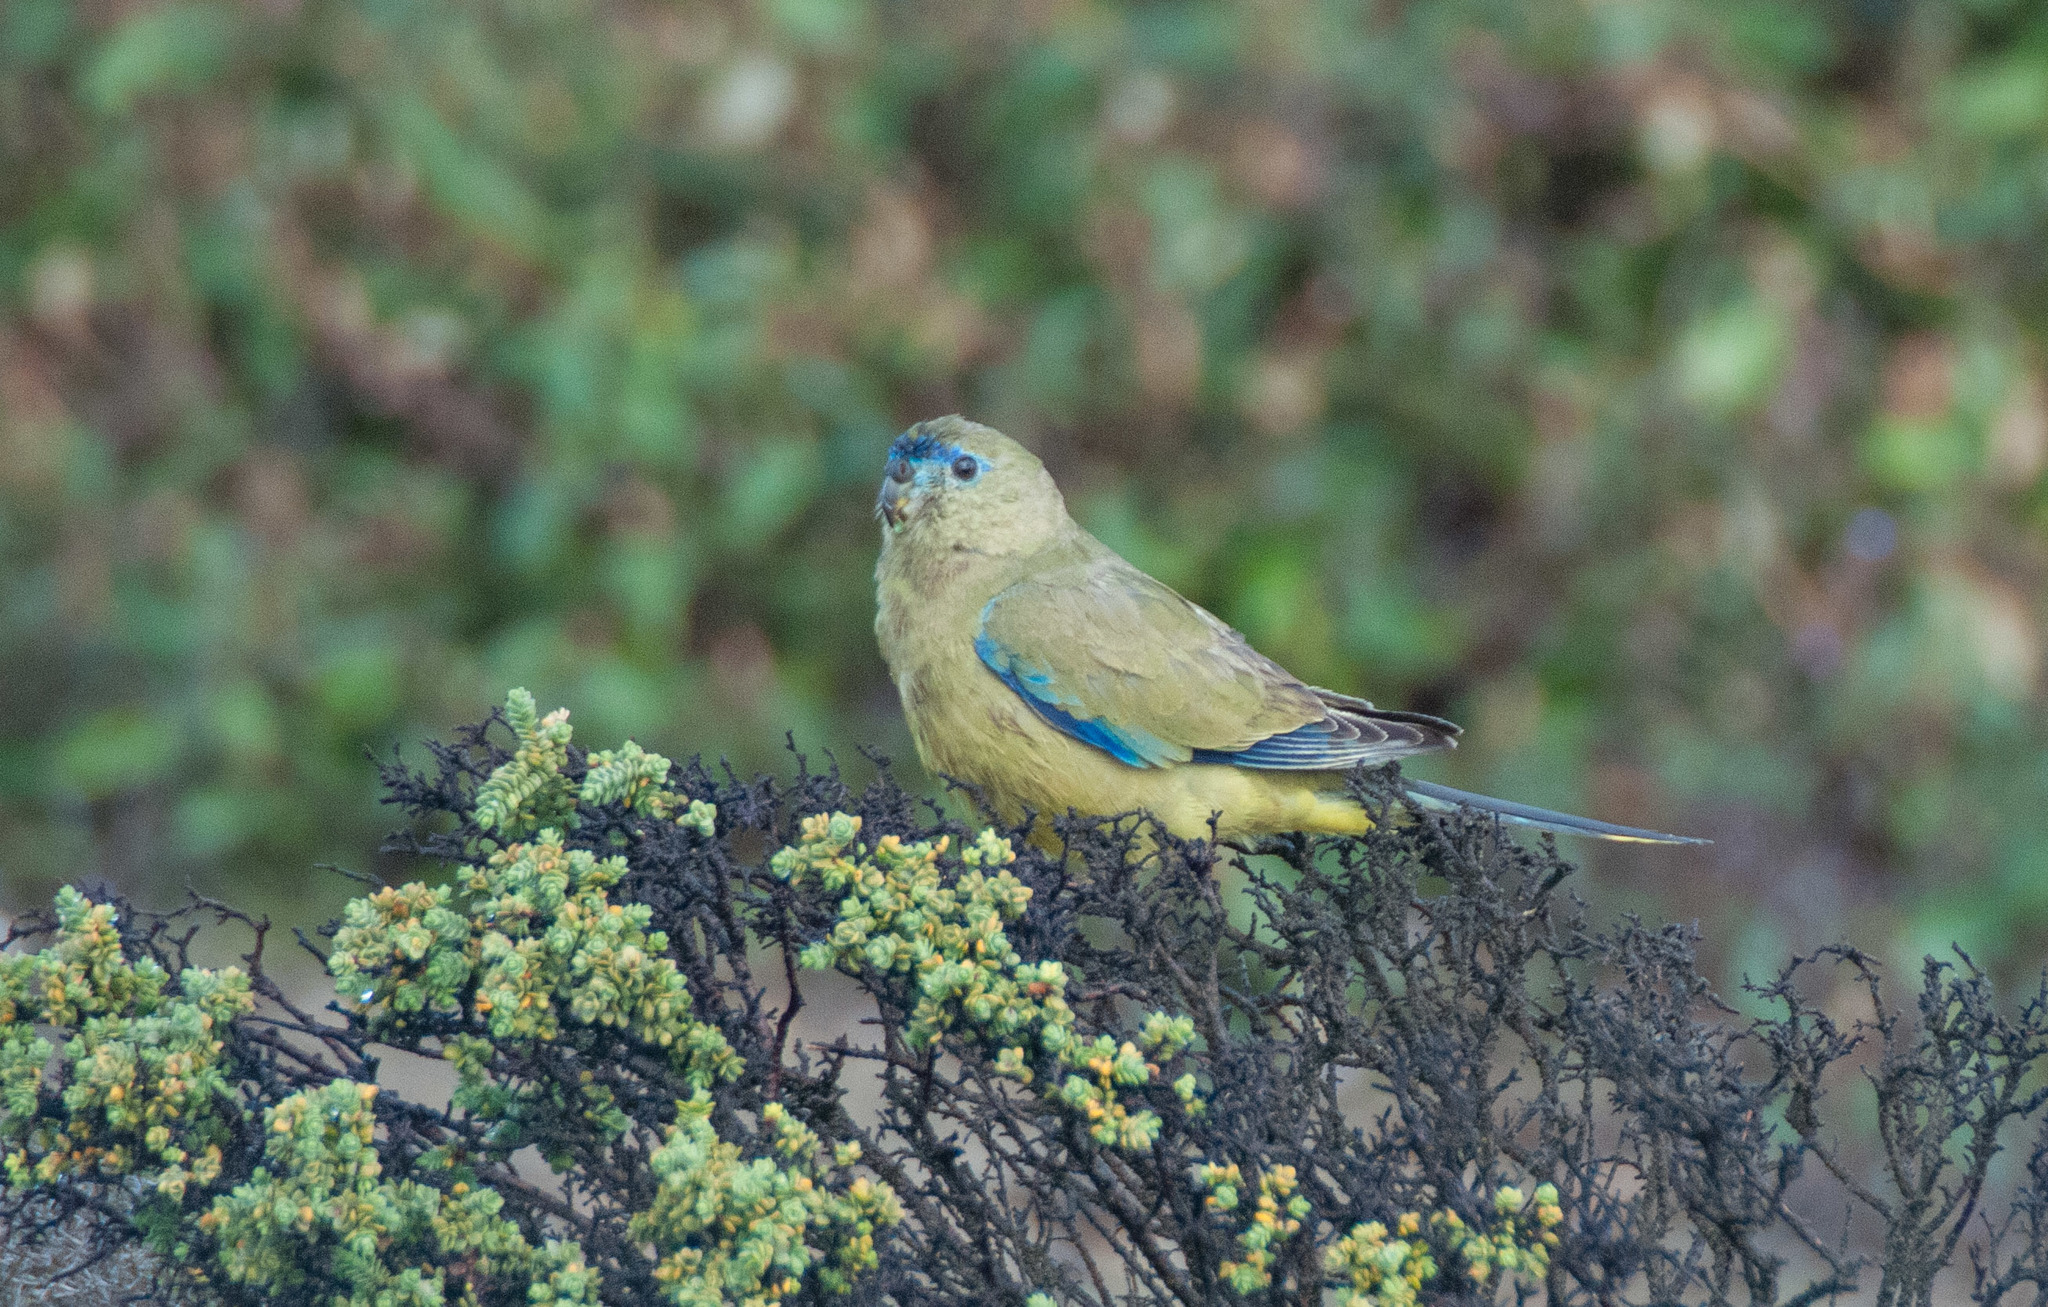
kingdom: Animalia
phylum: Chordata
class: Aves
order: Psittaciformes
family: Psittacidae
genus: Neophema
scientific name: Neophema petrophila
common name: Rock parrot
